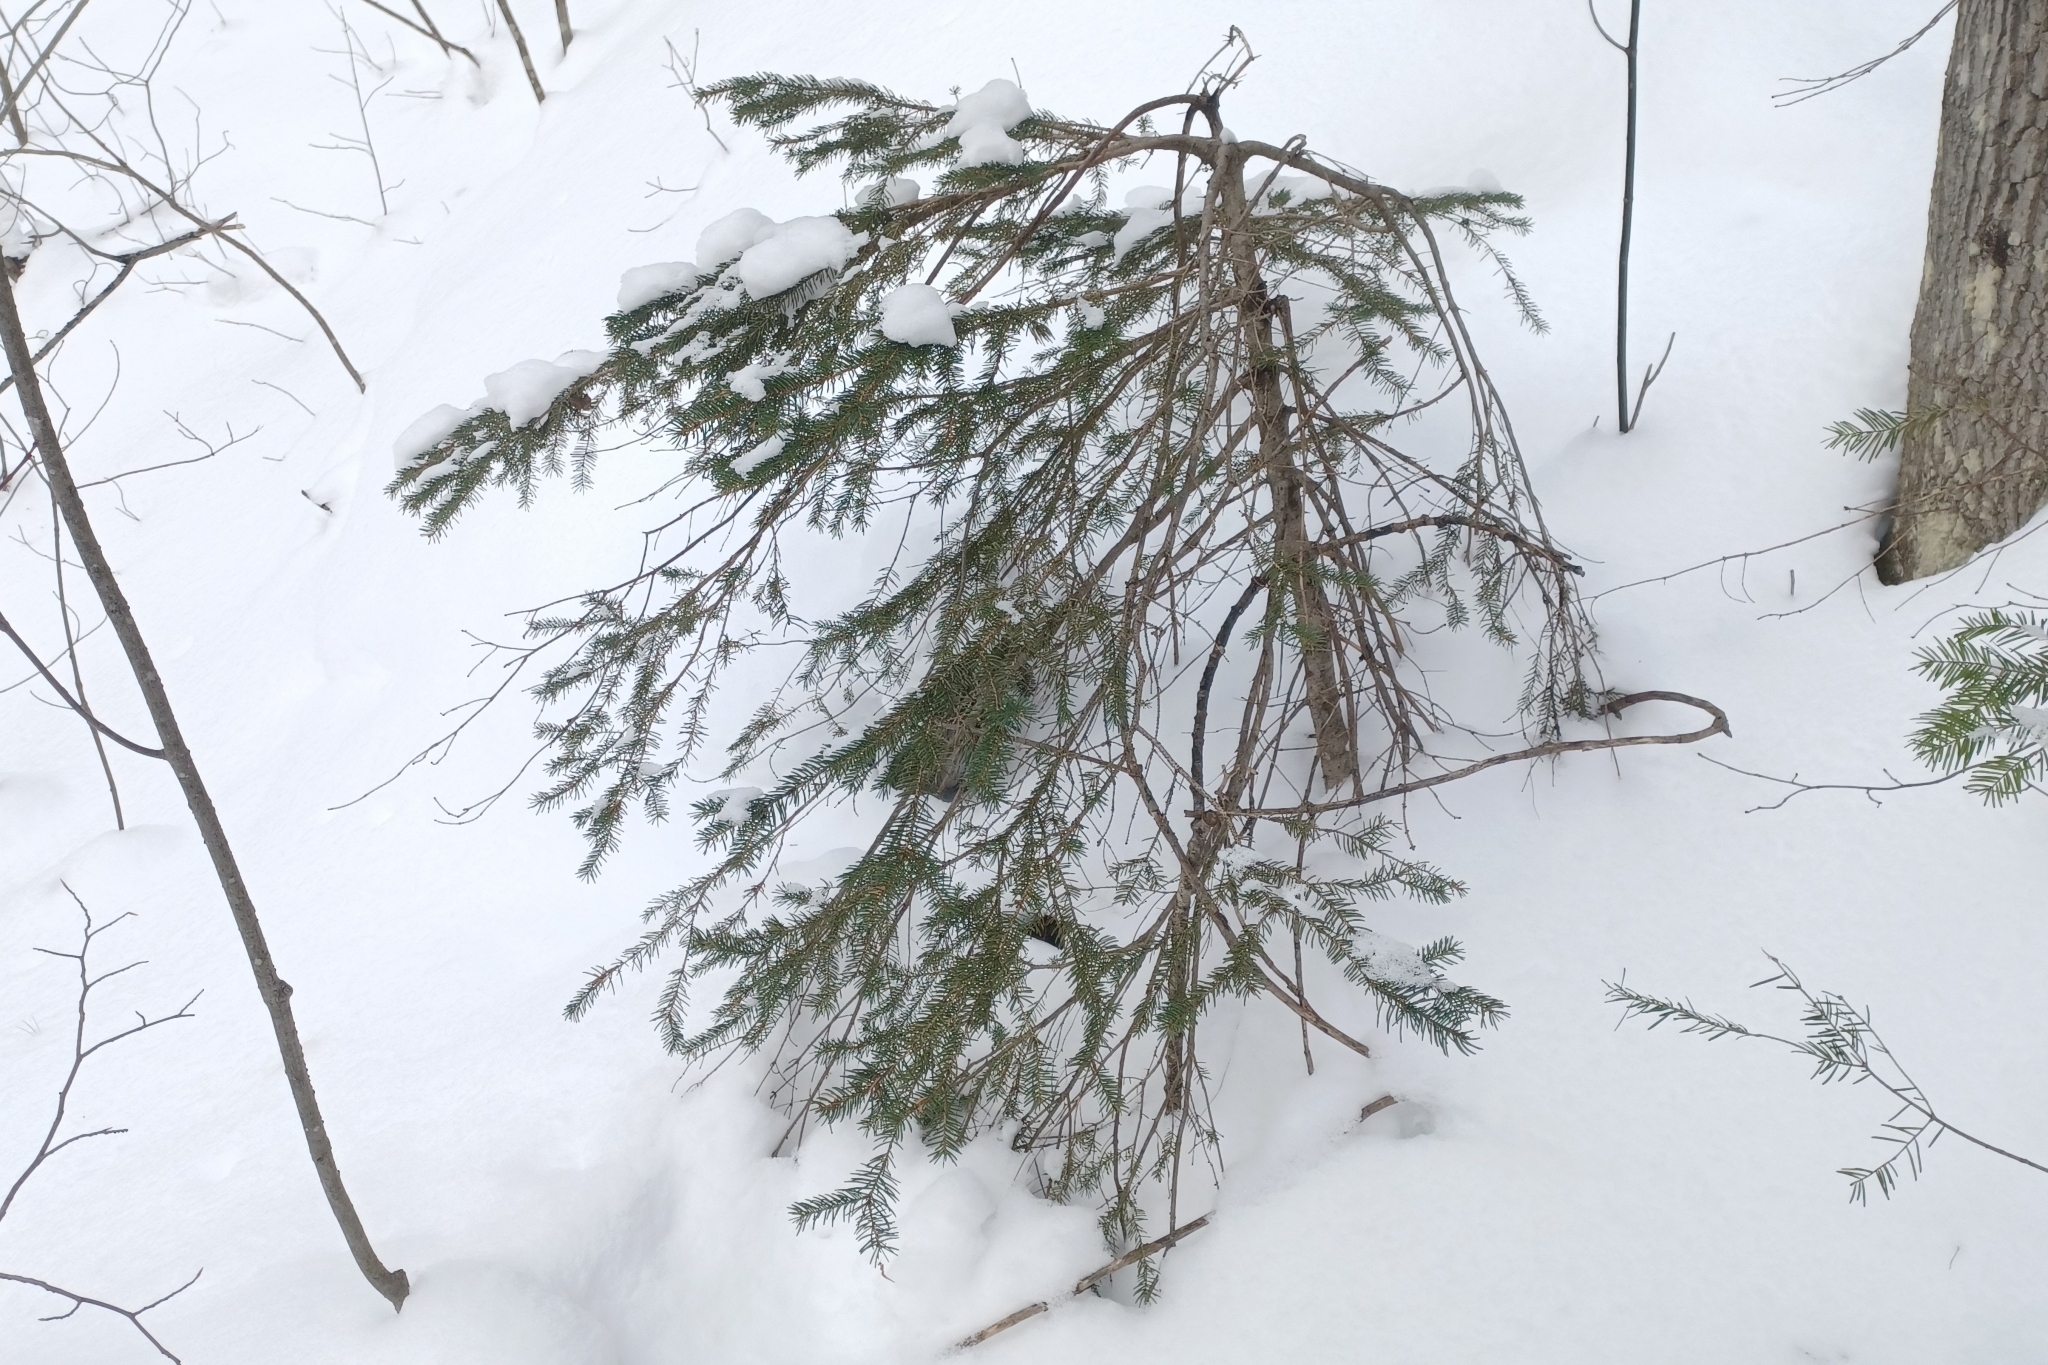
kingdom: Plantae
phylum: Tracheophyta
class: Pinopsida
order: Pinales
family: Pinaceae
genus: Picea
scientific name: Picea glauca
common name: White spruce
